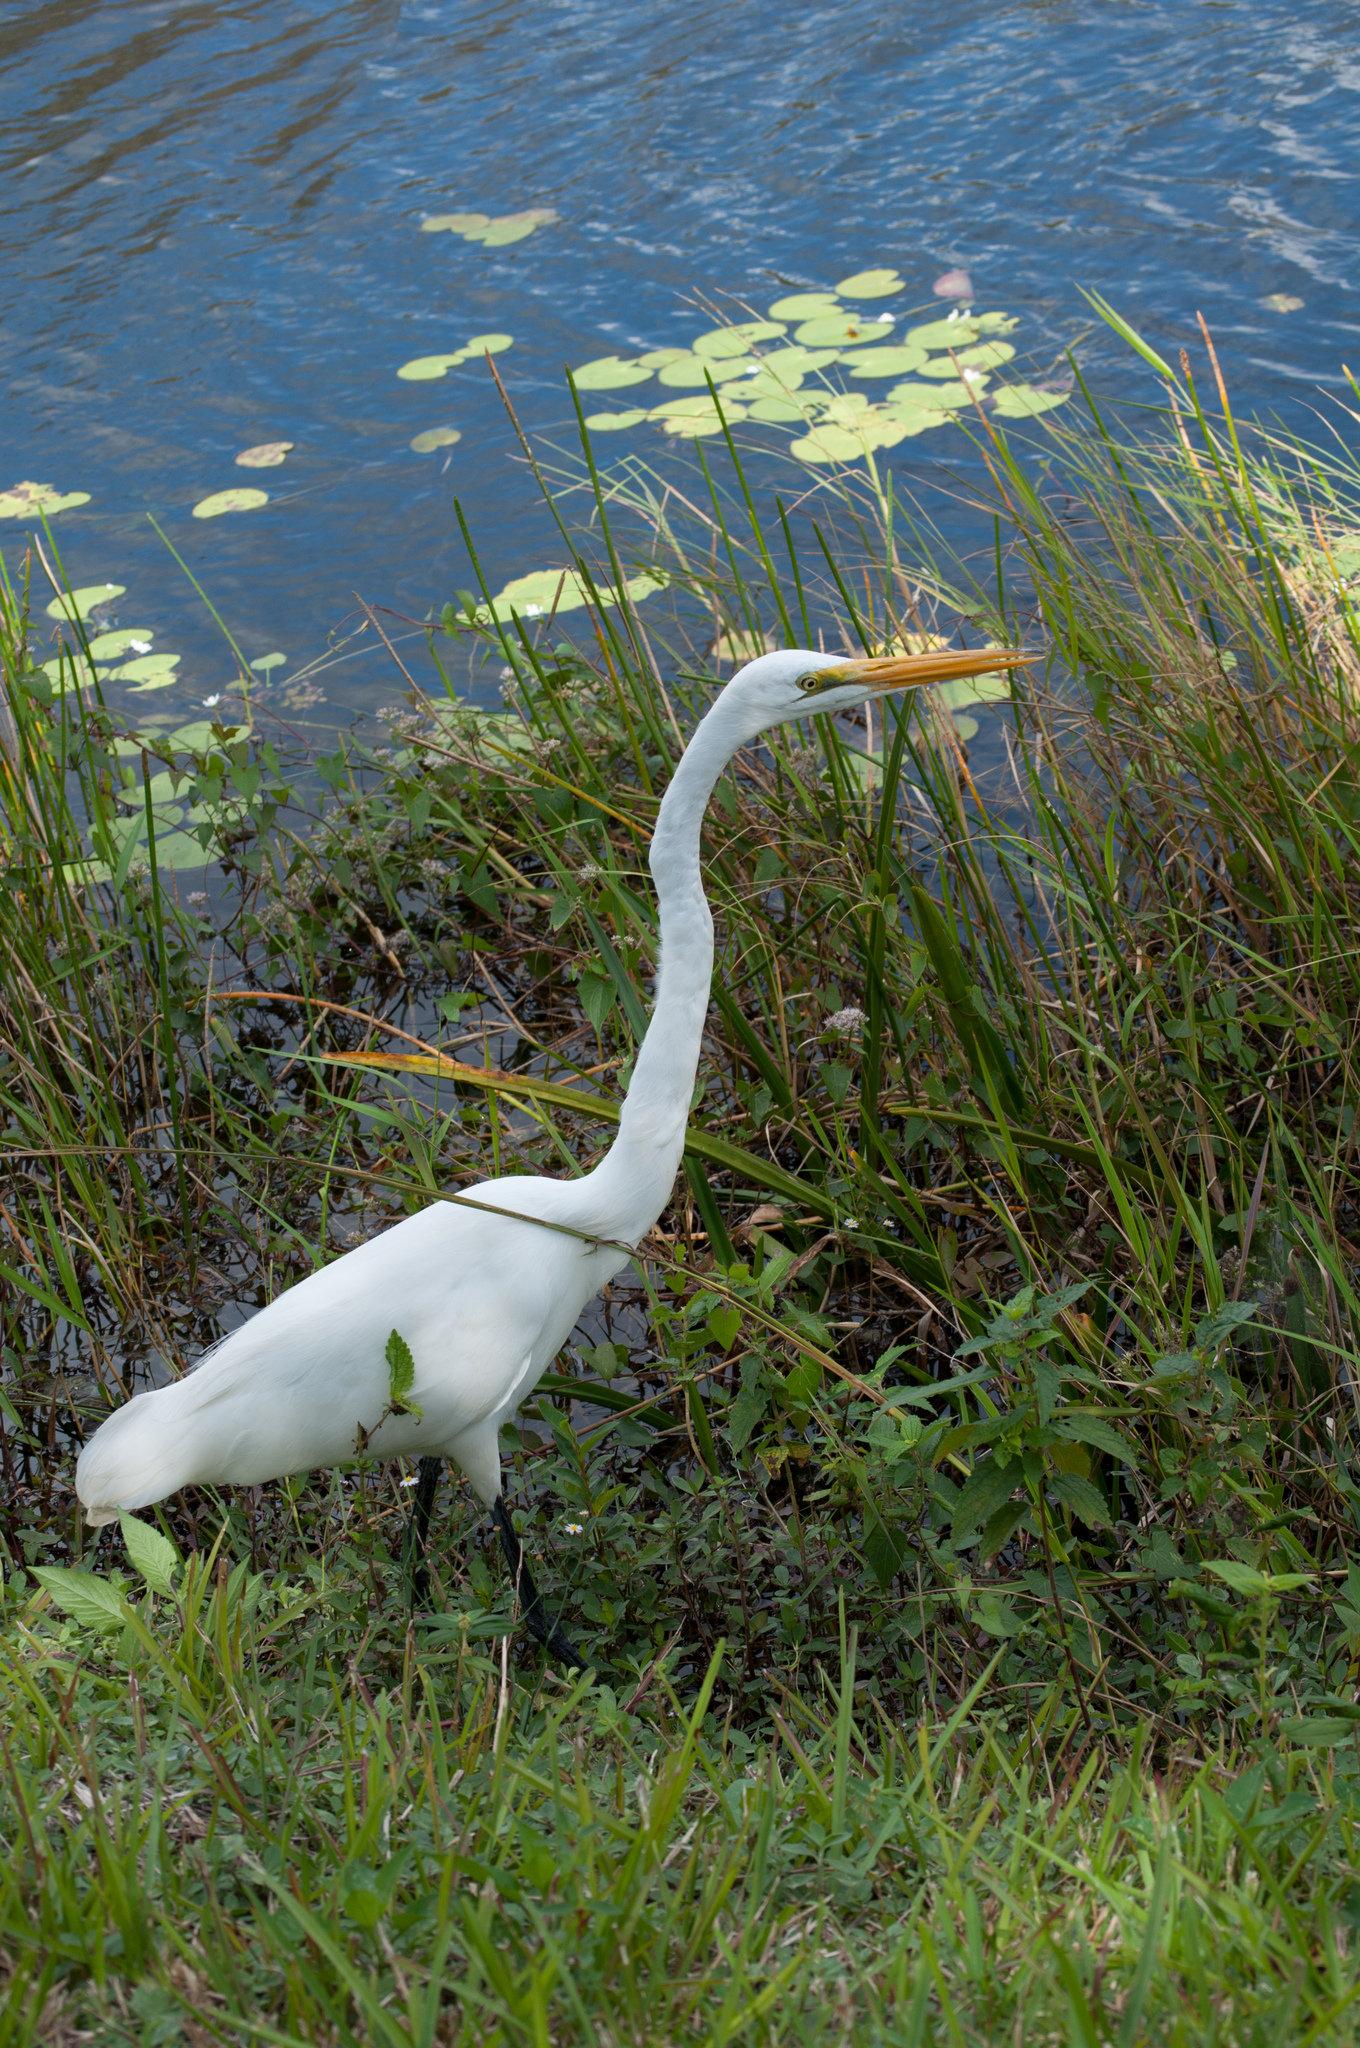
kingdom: Animalia
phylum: Chordata
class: Aves
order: Pelecaniformes
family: Ardeidae
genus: Ardea
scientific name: Ardea alba
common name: Great egret
